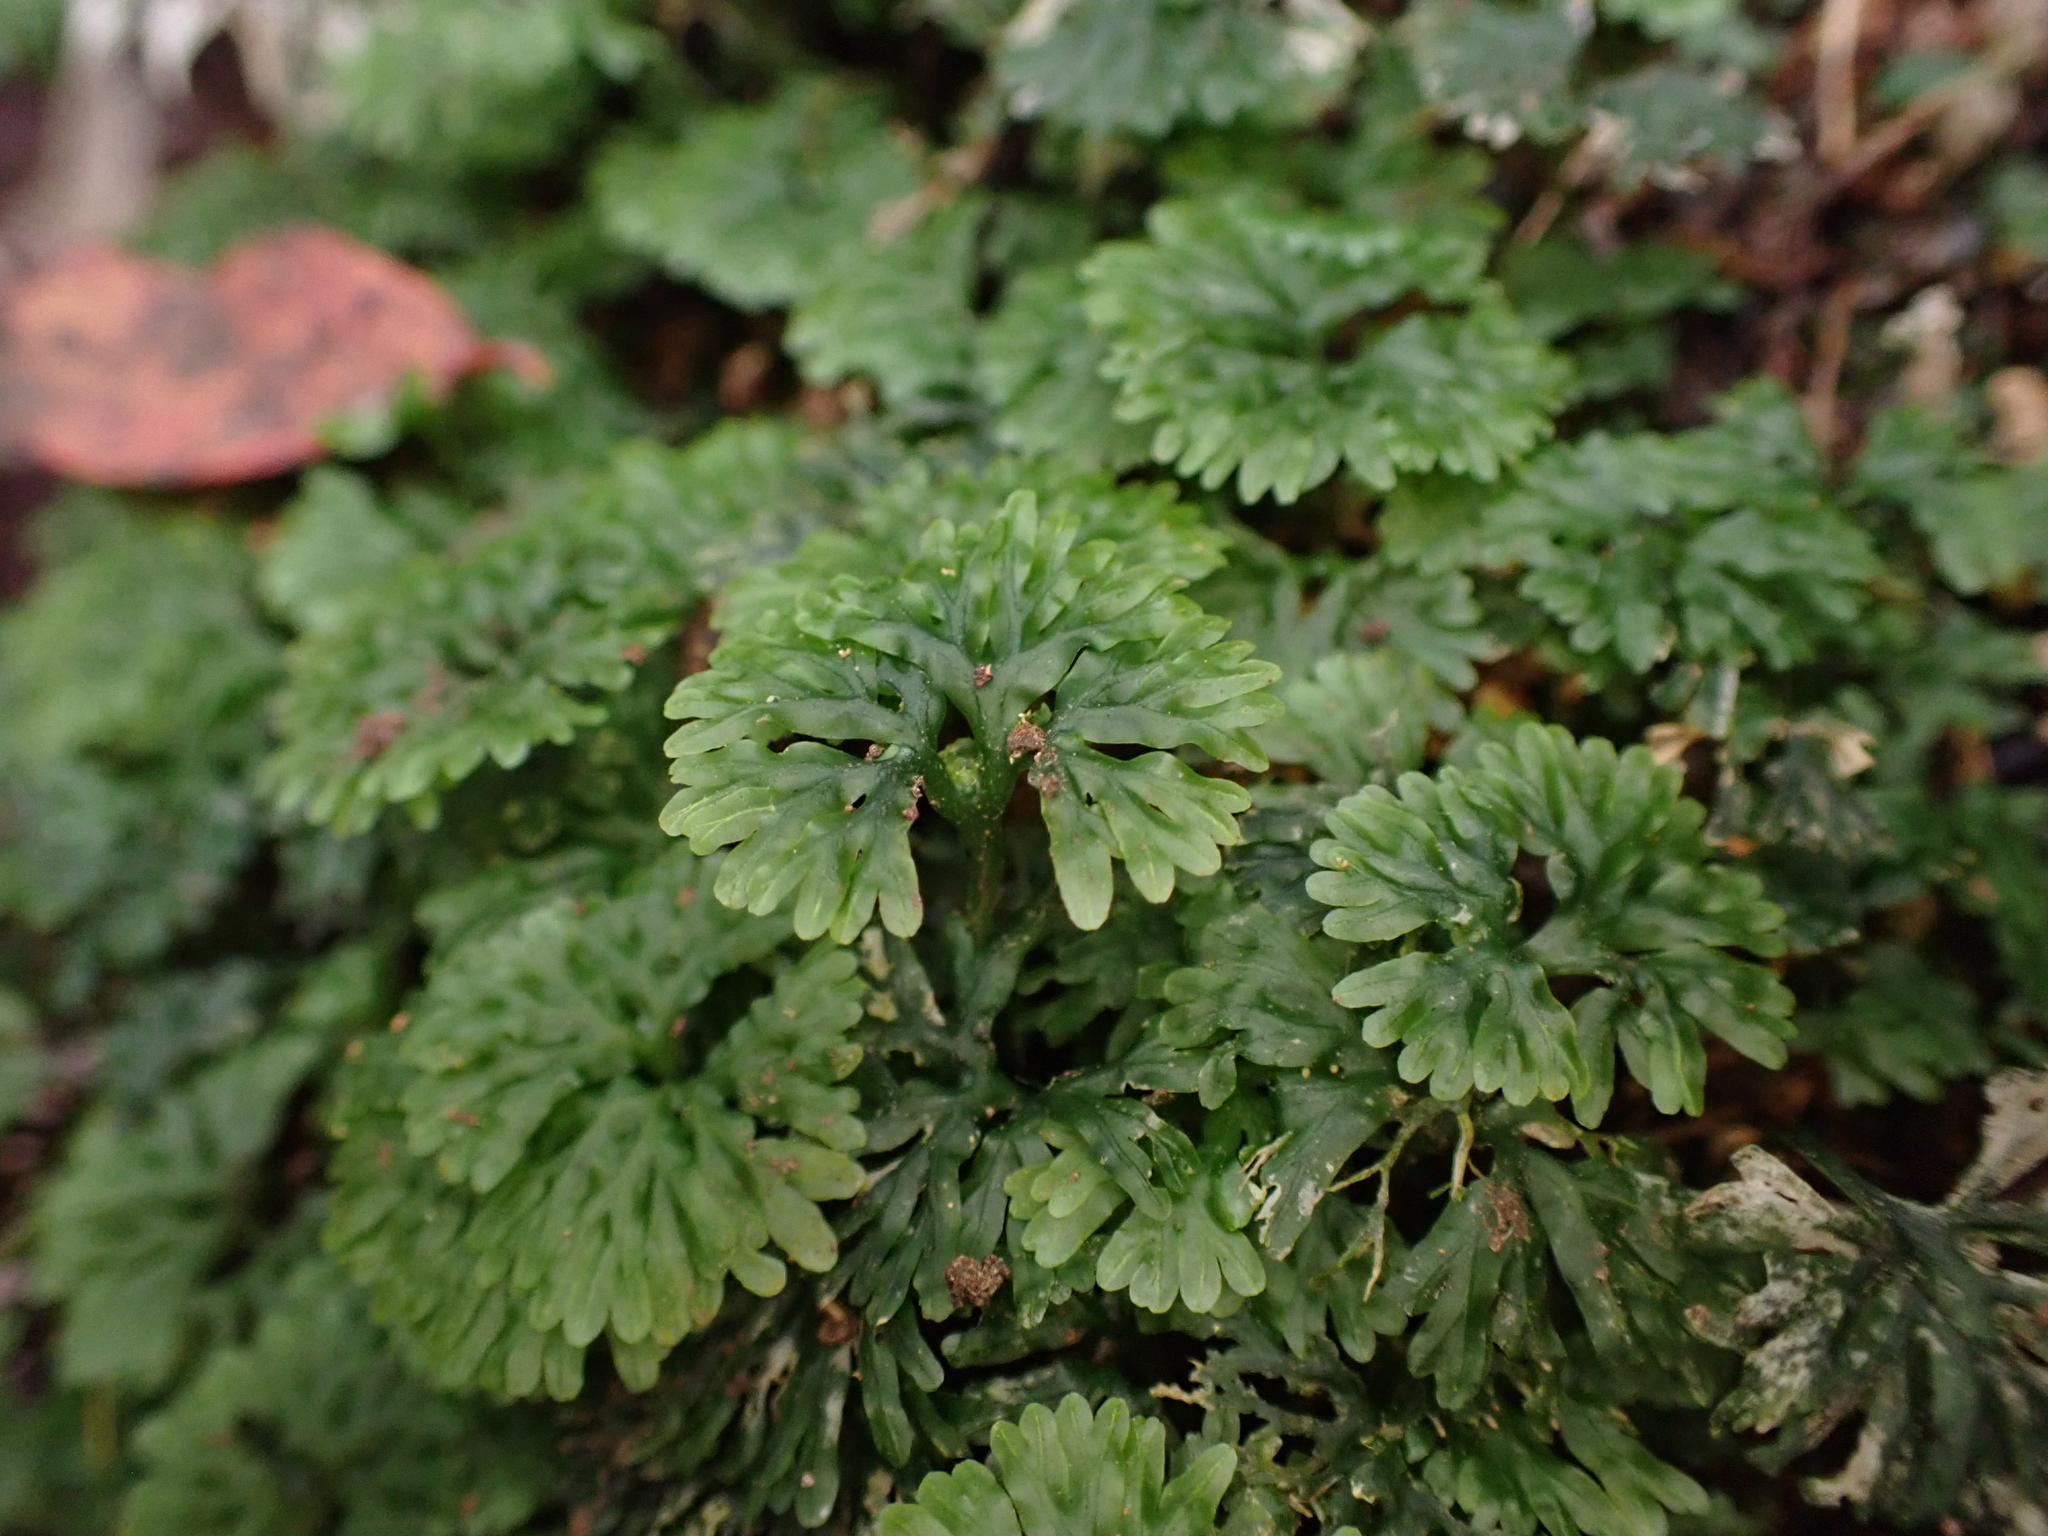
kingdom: Plantae
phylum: Marchantiophyta
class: Jungermanniopsida
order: Pallaviciniales
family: Hymenophytaceae
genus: Hymenophyton
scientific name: Hymenophyton flabellatum
